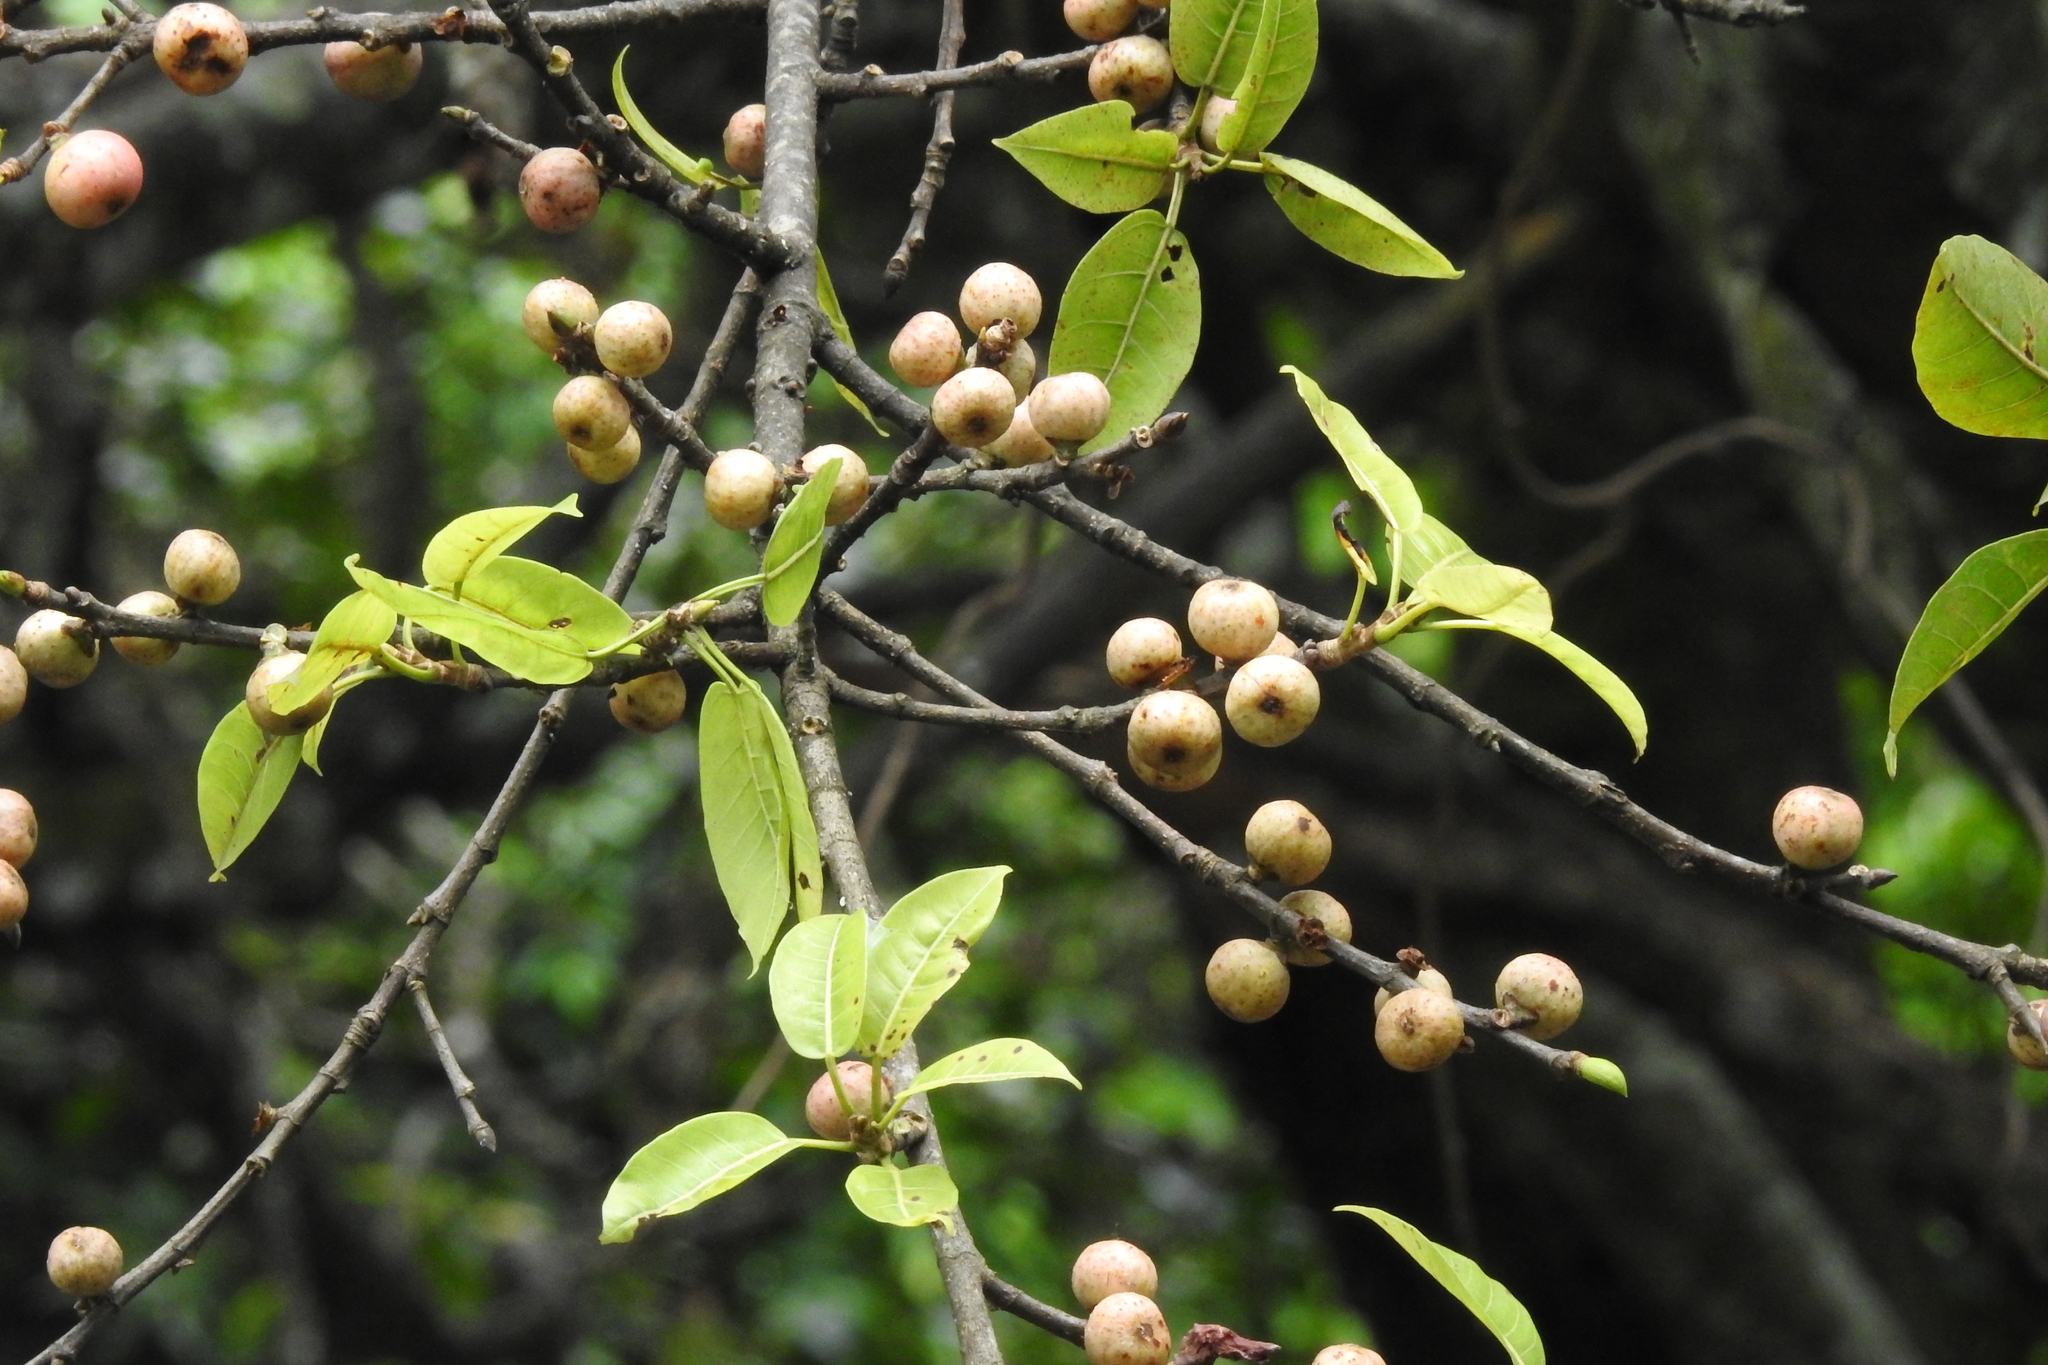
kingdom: Plantae
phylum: Tracheophyta
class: Magnoliopsida
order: Rosales
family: Moraceae
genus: Ficus
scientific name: Ficus virens
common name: Spotted fig
